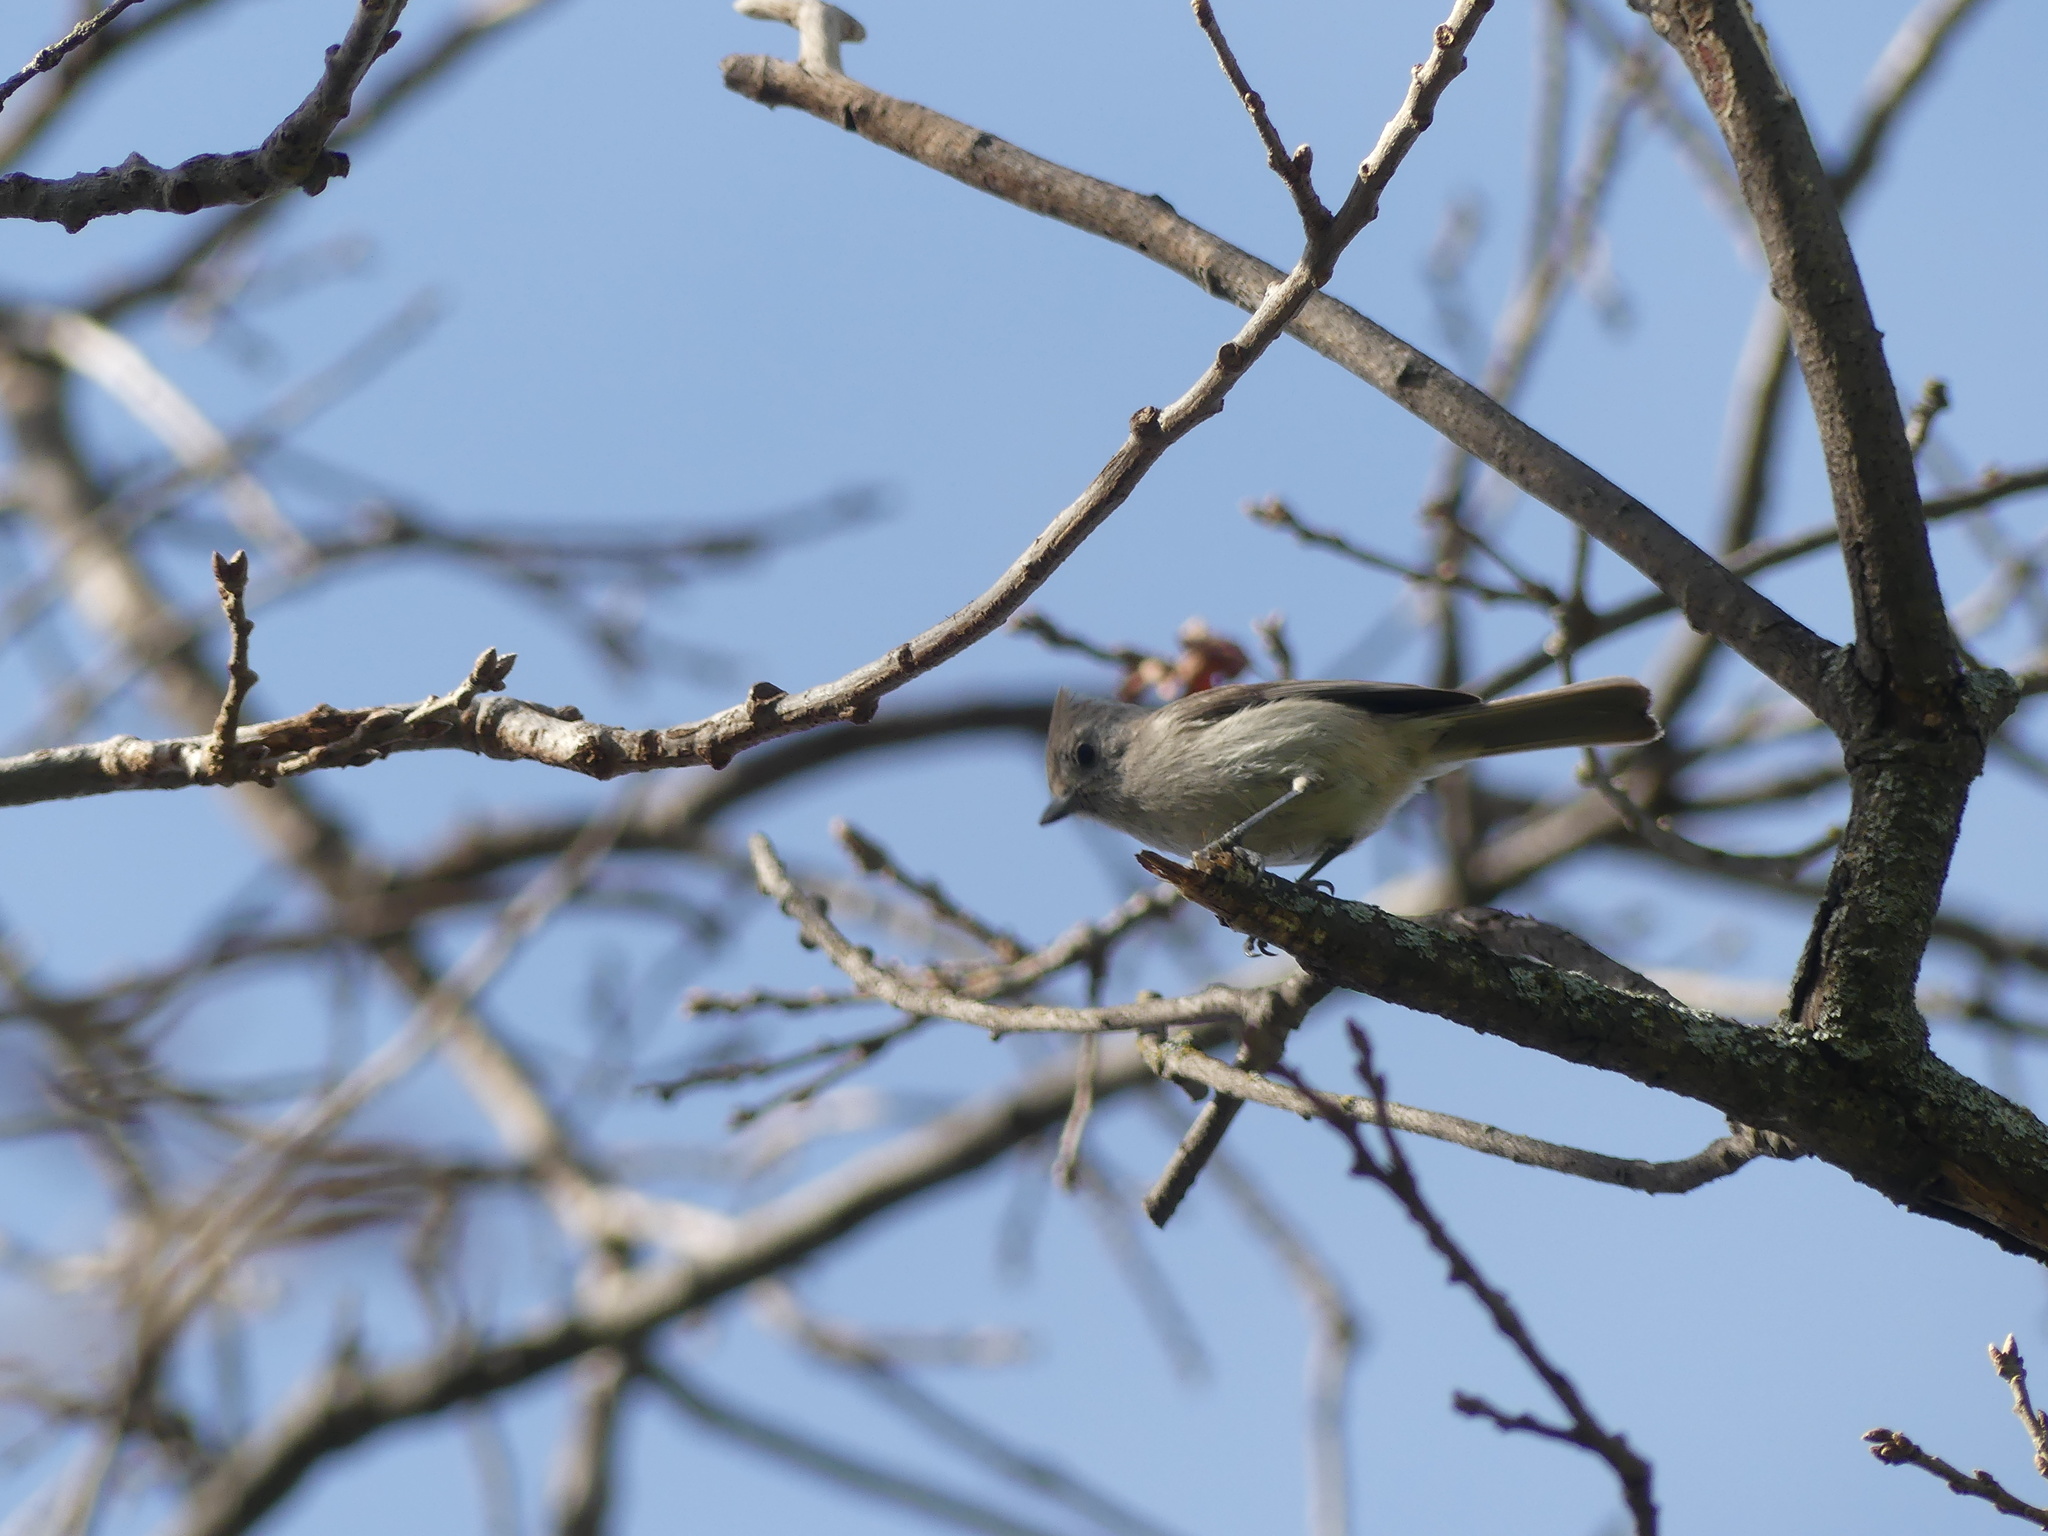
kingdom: Animalia
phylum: Chordata
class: Aves
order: Passeriformes
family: Paridae
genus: Baeolophus
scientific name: Baeolophus inornatus
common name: Oak titmouse
